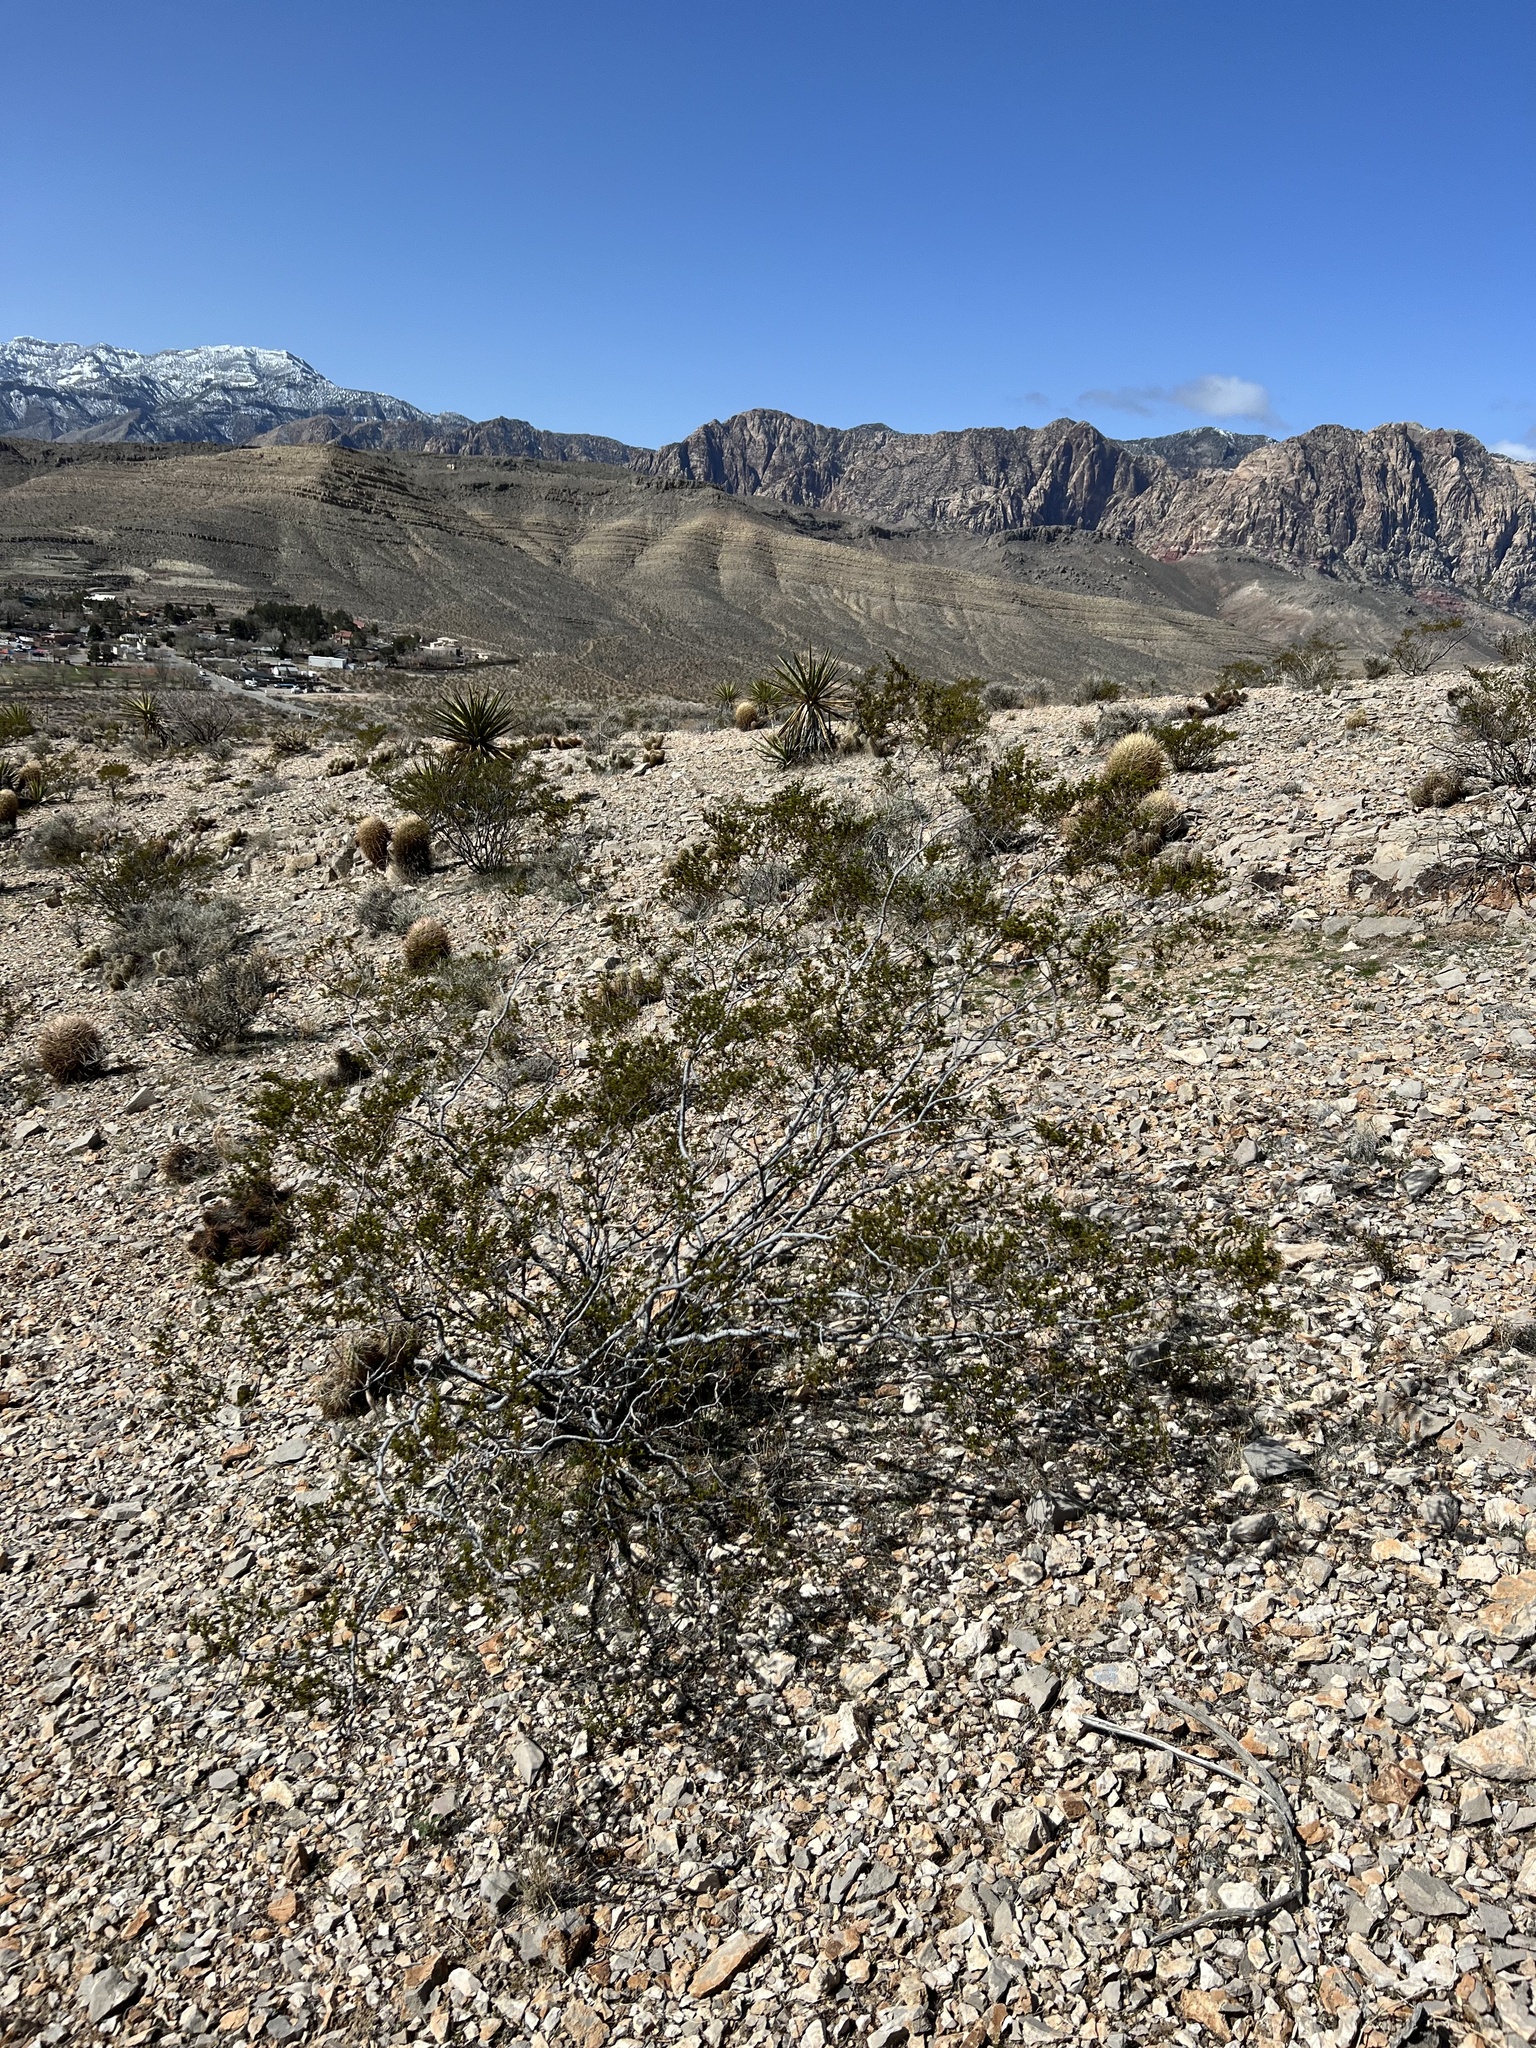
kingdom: Plantae
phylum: Tracheophyta
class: Magnoliopsida
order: Zygophyllales
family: Zygophyllaceae
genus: Larrea
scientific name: Larrea tridentata
